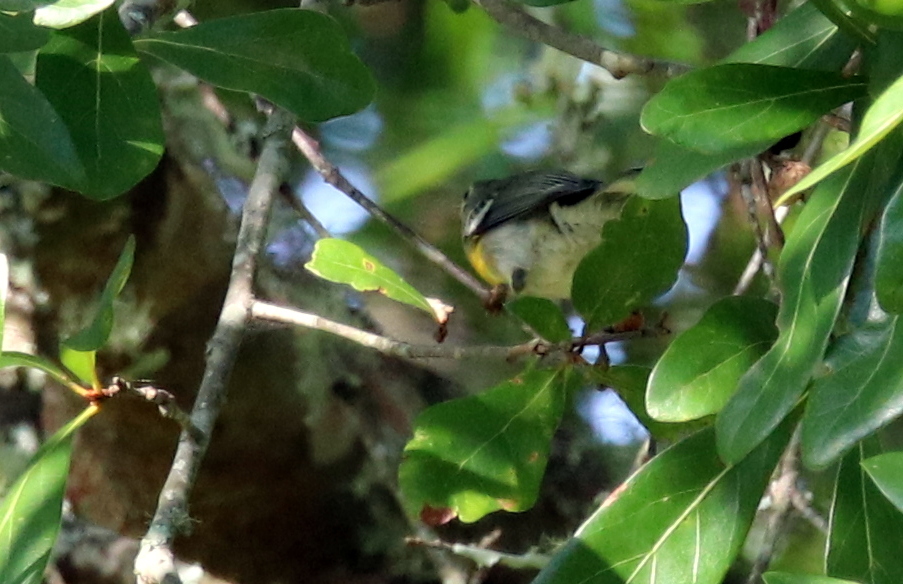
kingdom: Animalia
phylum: Chordata
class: Aves
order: Passeriformes
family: Parulidae
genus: Setophaga
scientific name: Setophaga americana
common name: Northern parula
